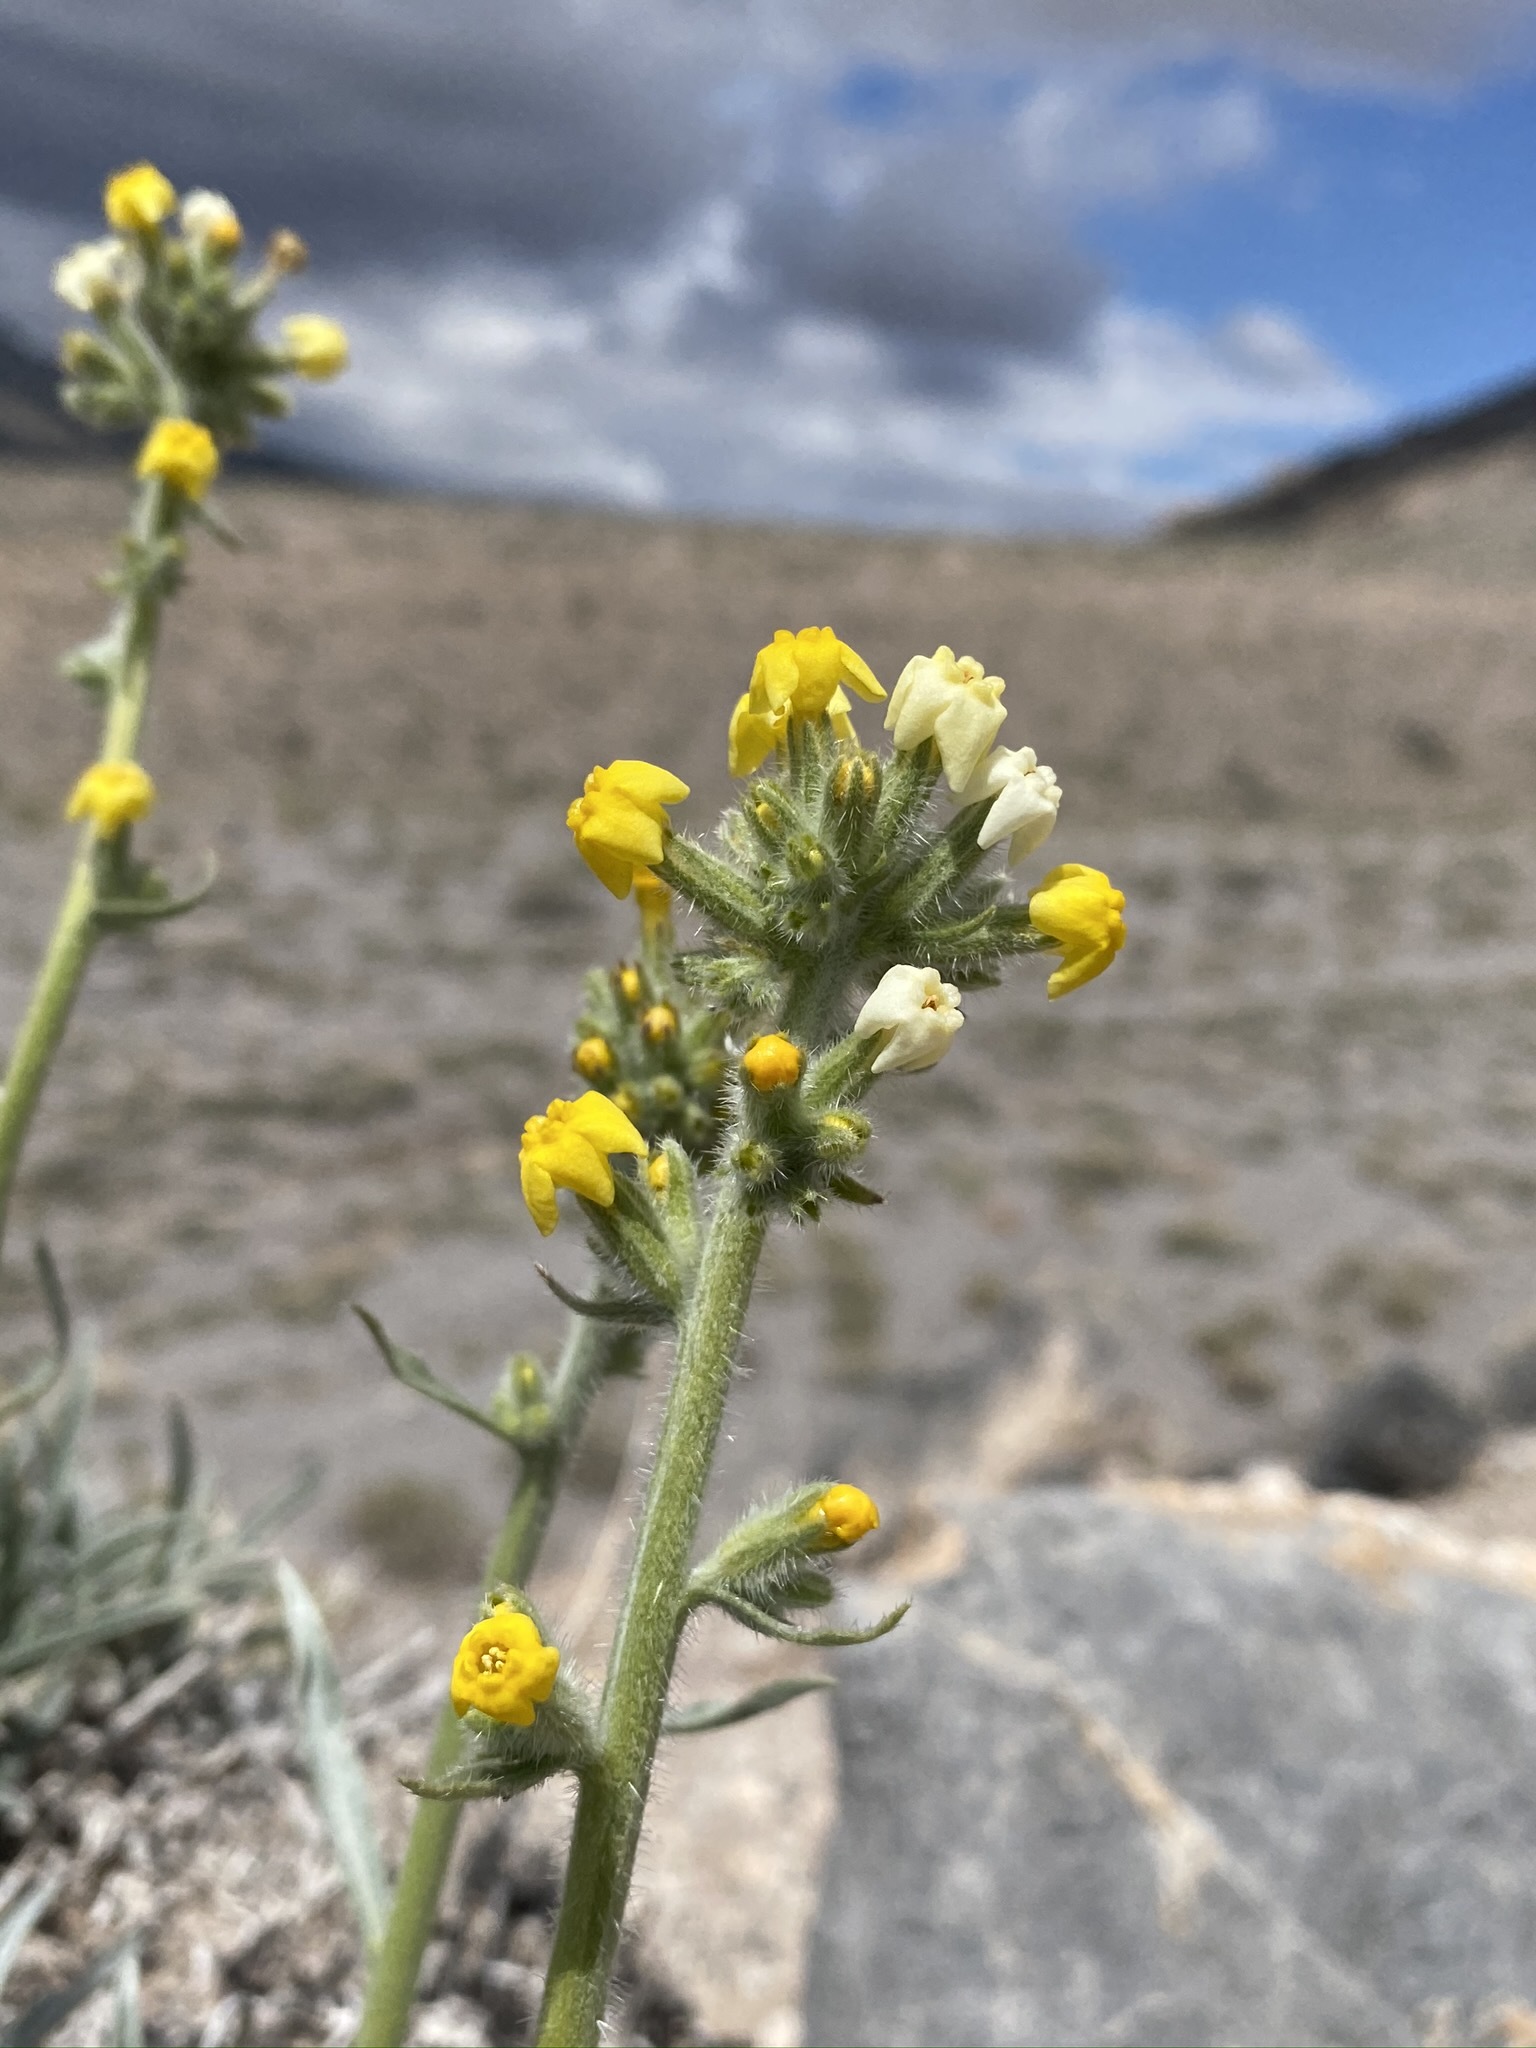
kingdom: Plantae
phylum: Tracheophyta
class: Magnoliopsida
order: Boraginales
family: Boraginaceae
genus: Oreocarya
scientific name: Oreocarya confertiflora
